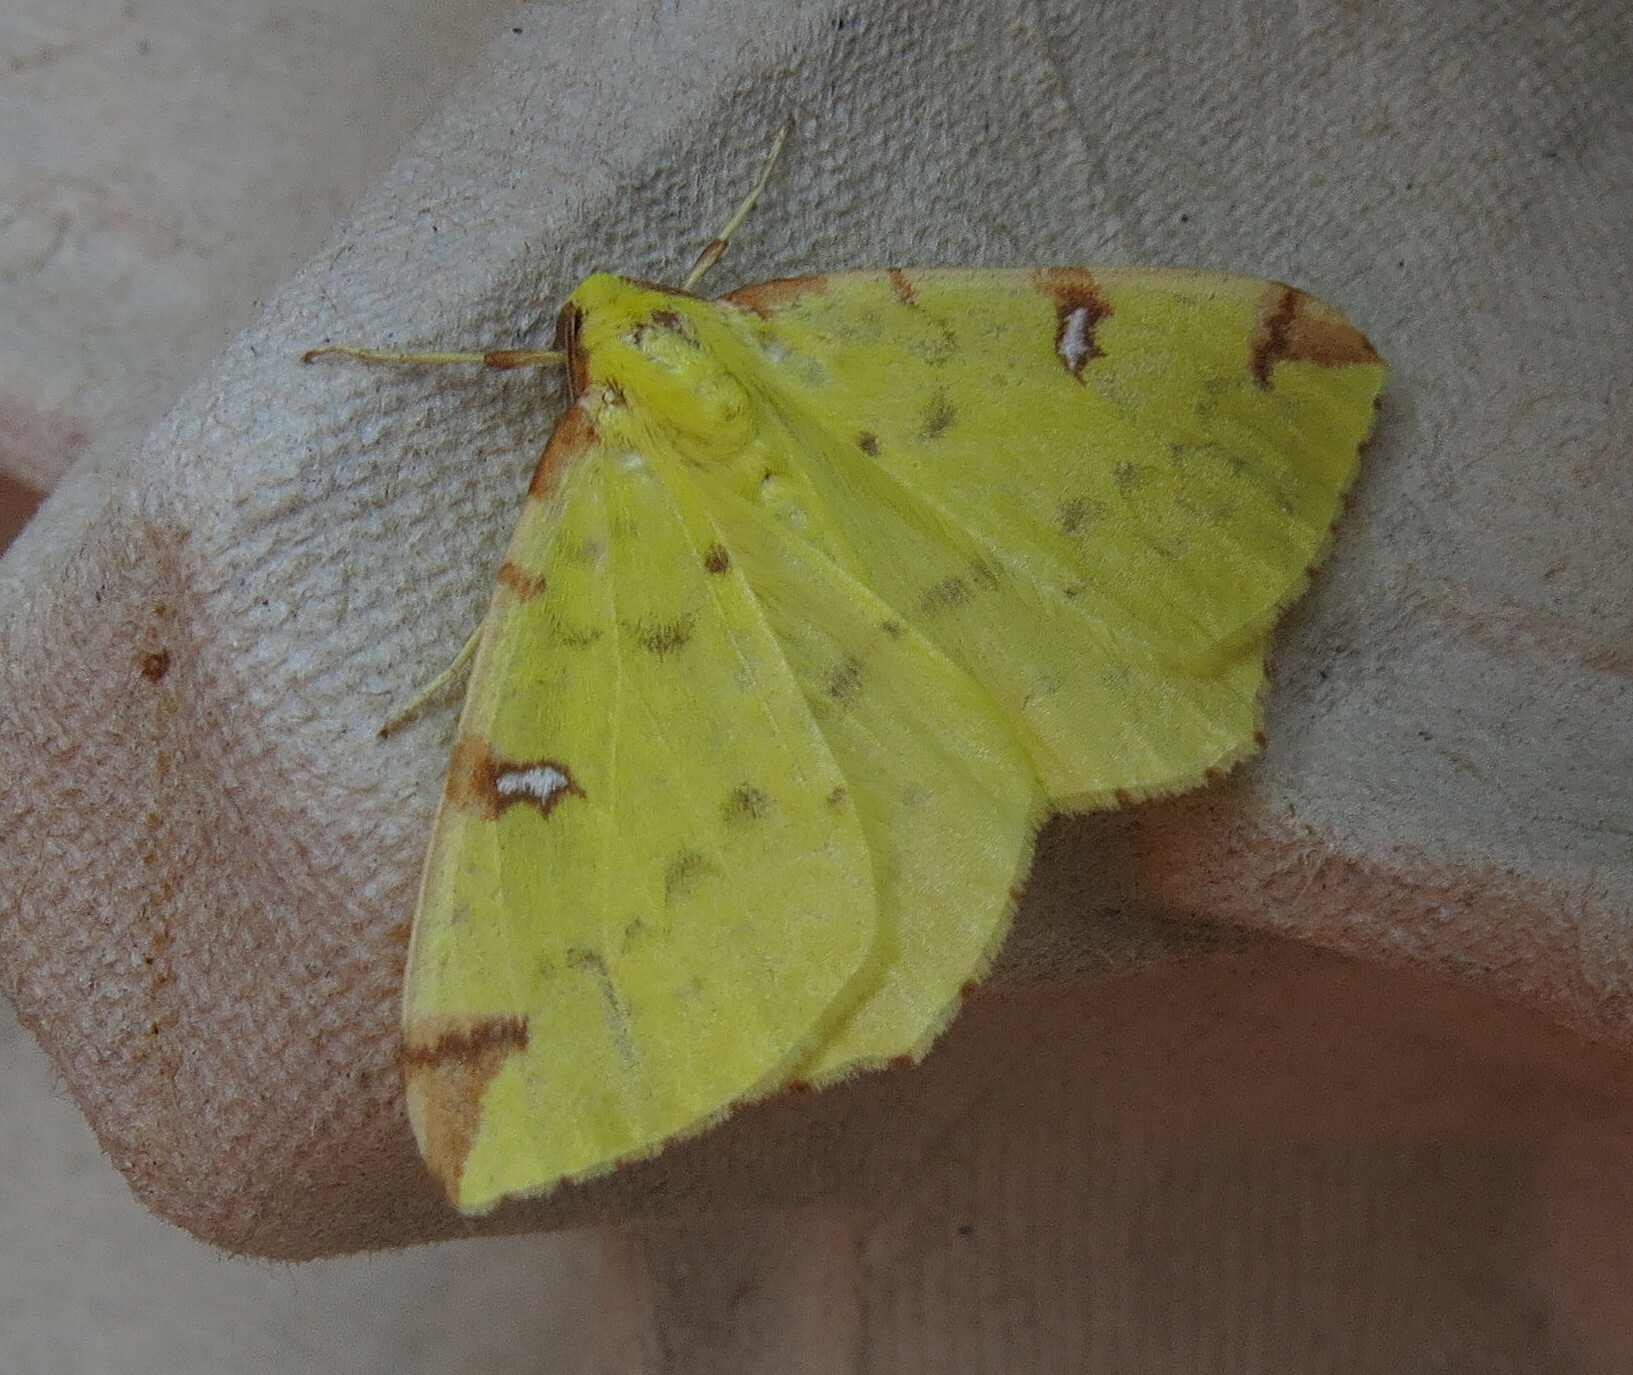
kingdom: Animalia
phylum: Arthropoda
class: Insecta
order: Lepidoptera
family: Geometridae
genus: Opisthograptis
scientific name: Opisthograptis luteolata
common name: Brimstone moth
